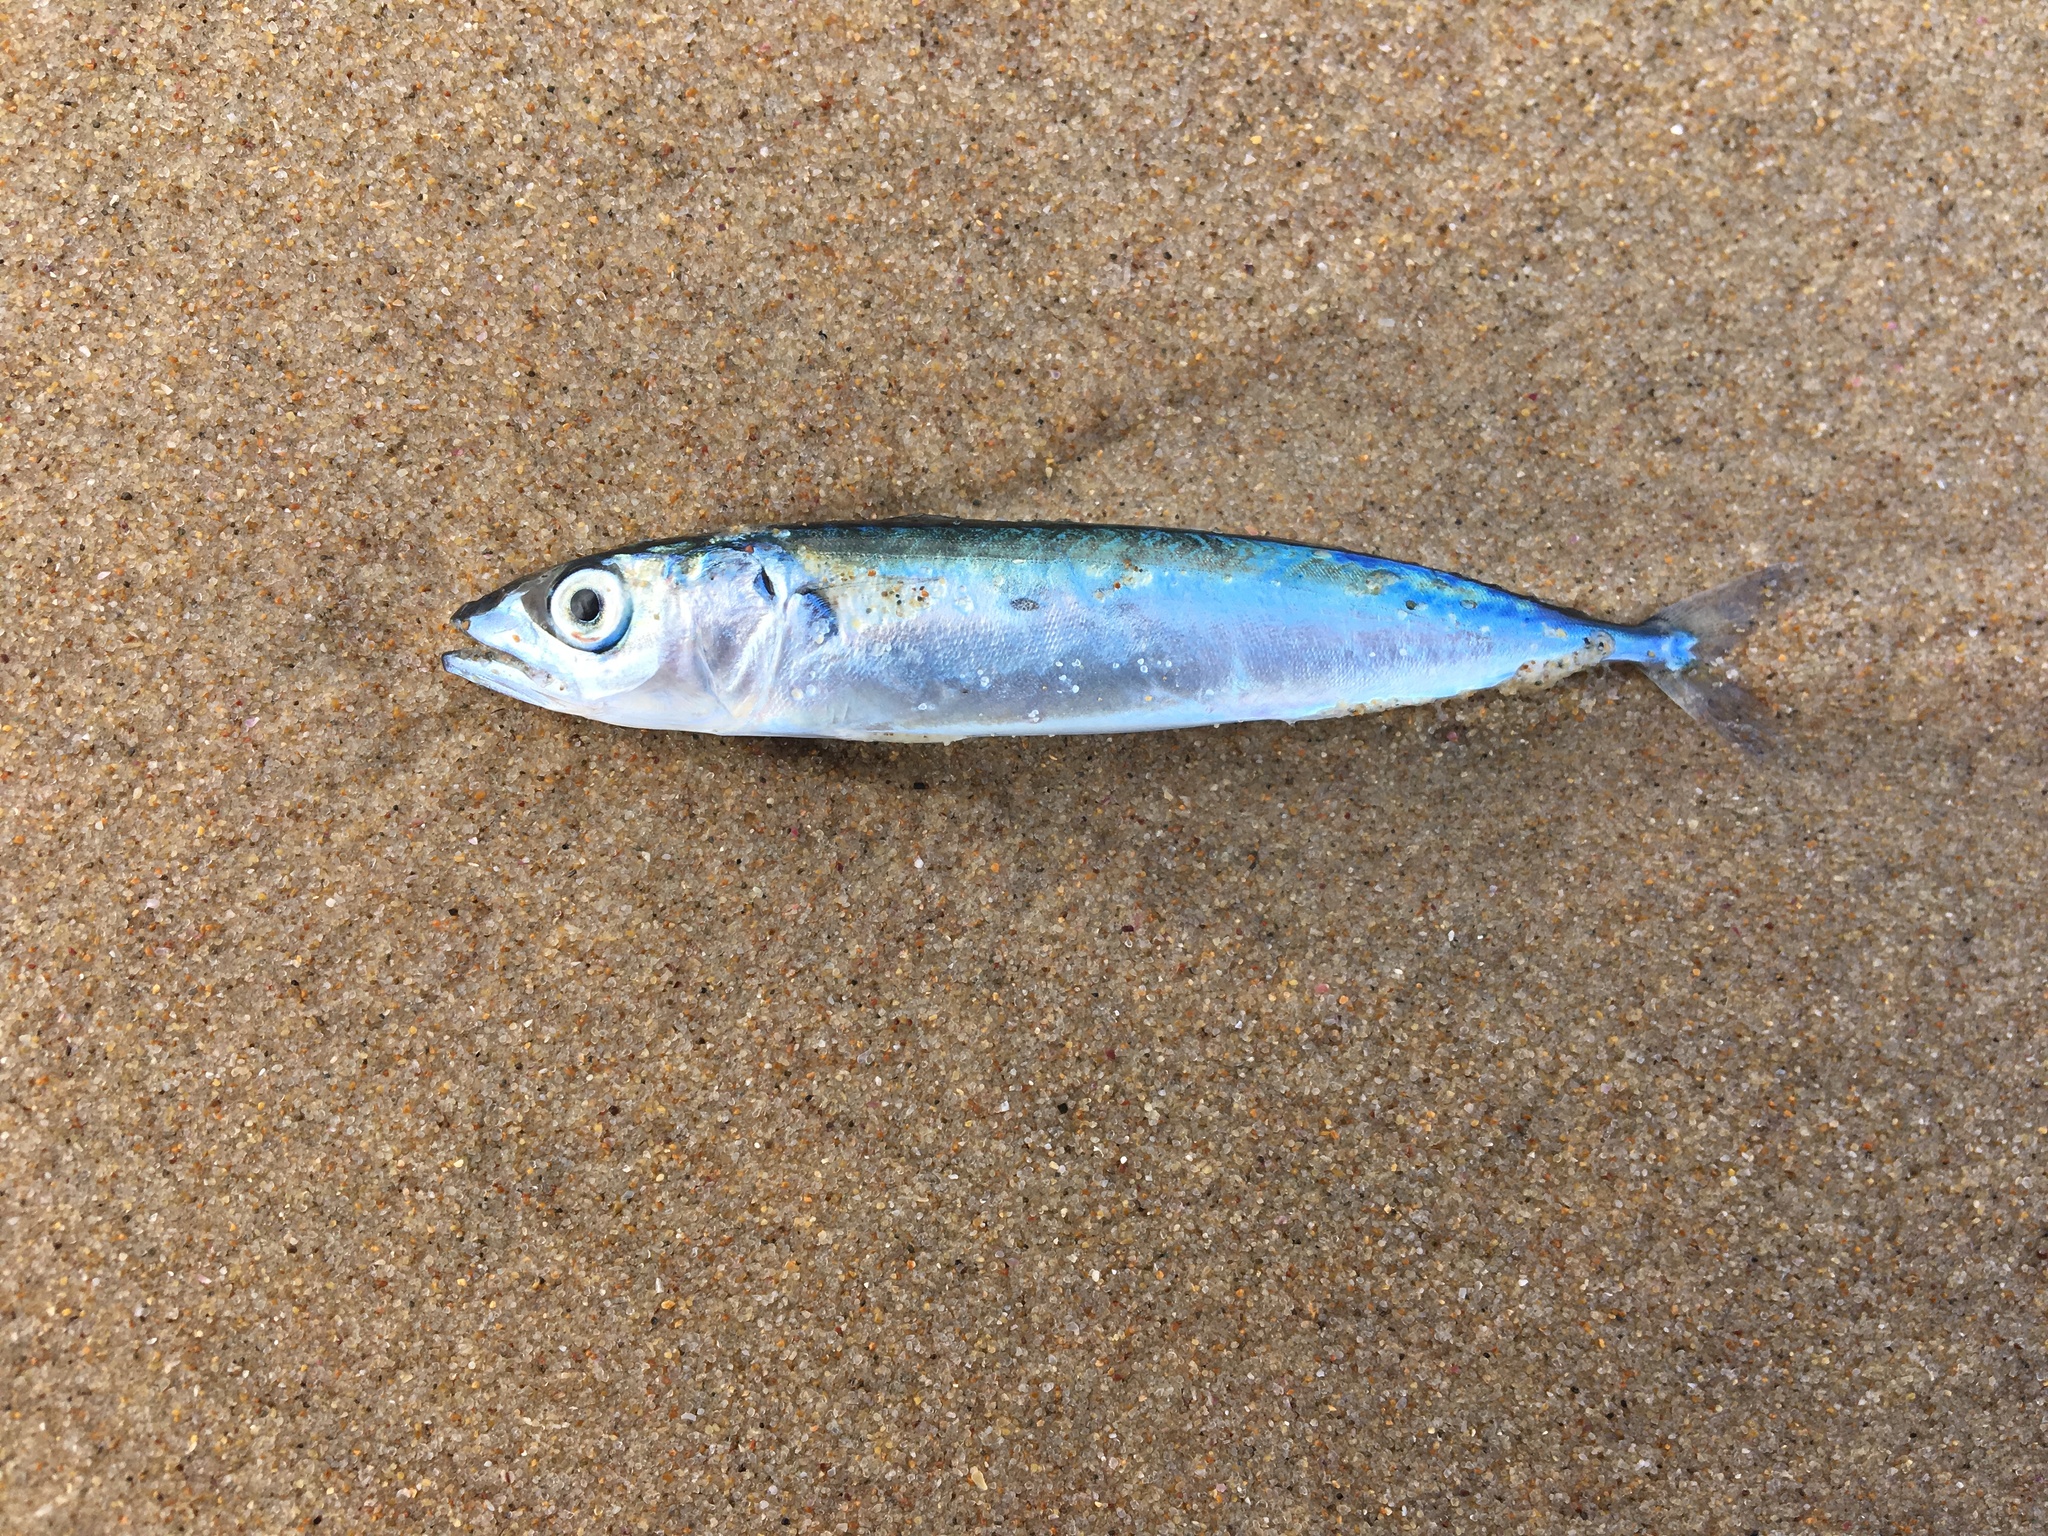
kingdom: Animalia
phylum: Chordata
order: Perciformes
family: Scombridae
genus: Scomber
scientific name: Scomber australasicus
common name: Blue mackerel
